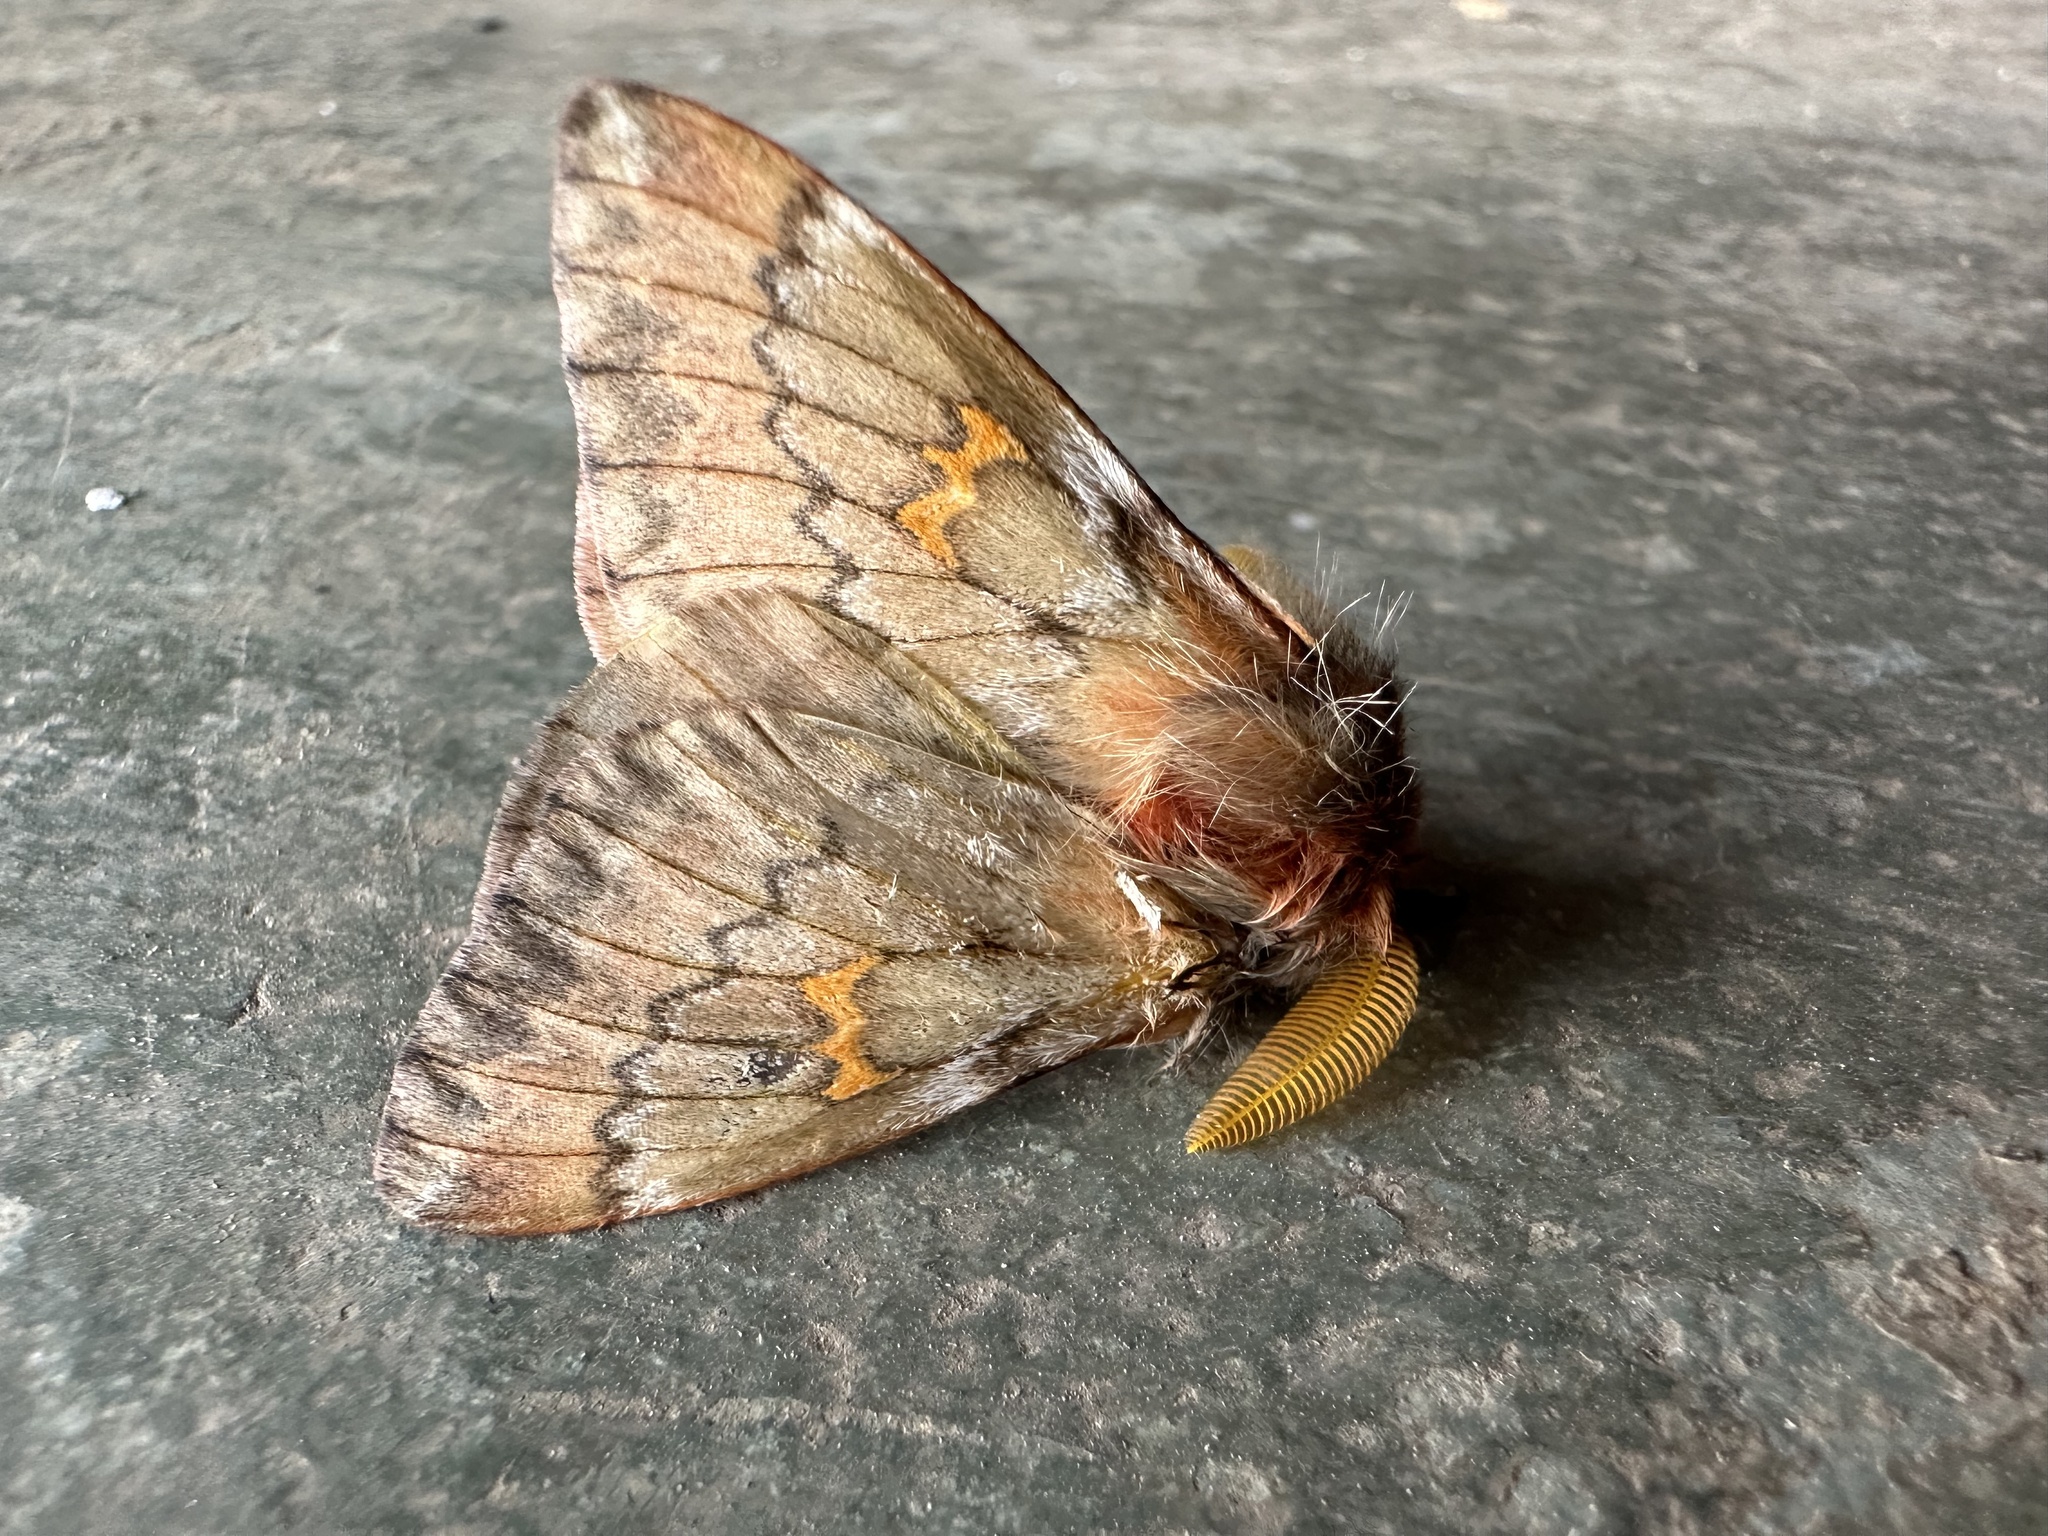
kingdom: Animalia
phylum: Arthropoda
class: Insecta
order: Lepidoptera
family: Saturniidae
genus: Ormiscodes
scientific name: Ormiscodes joiceyi
